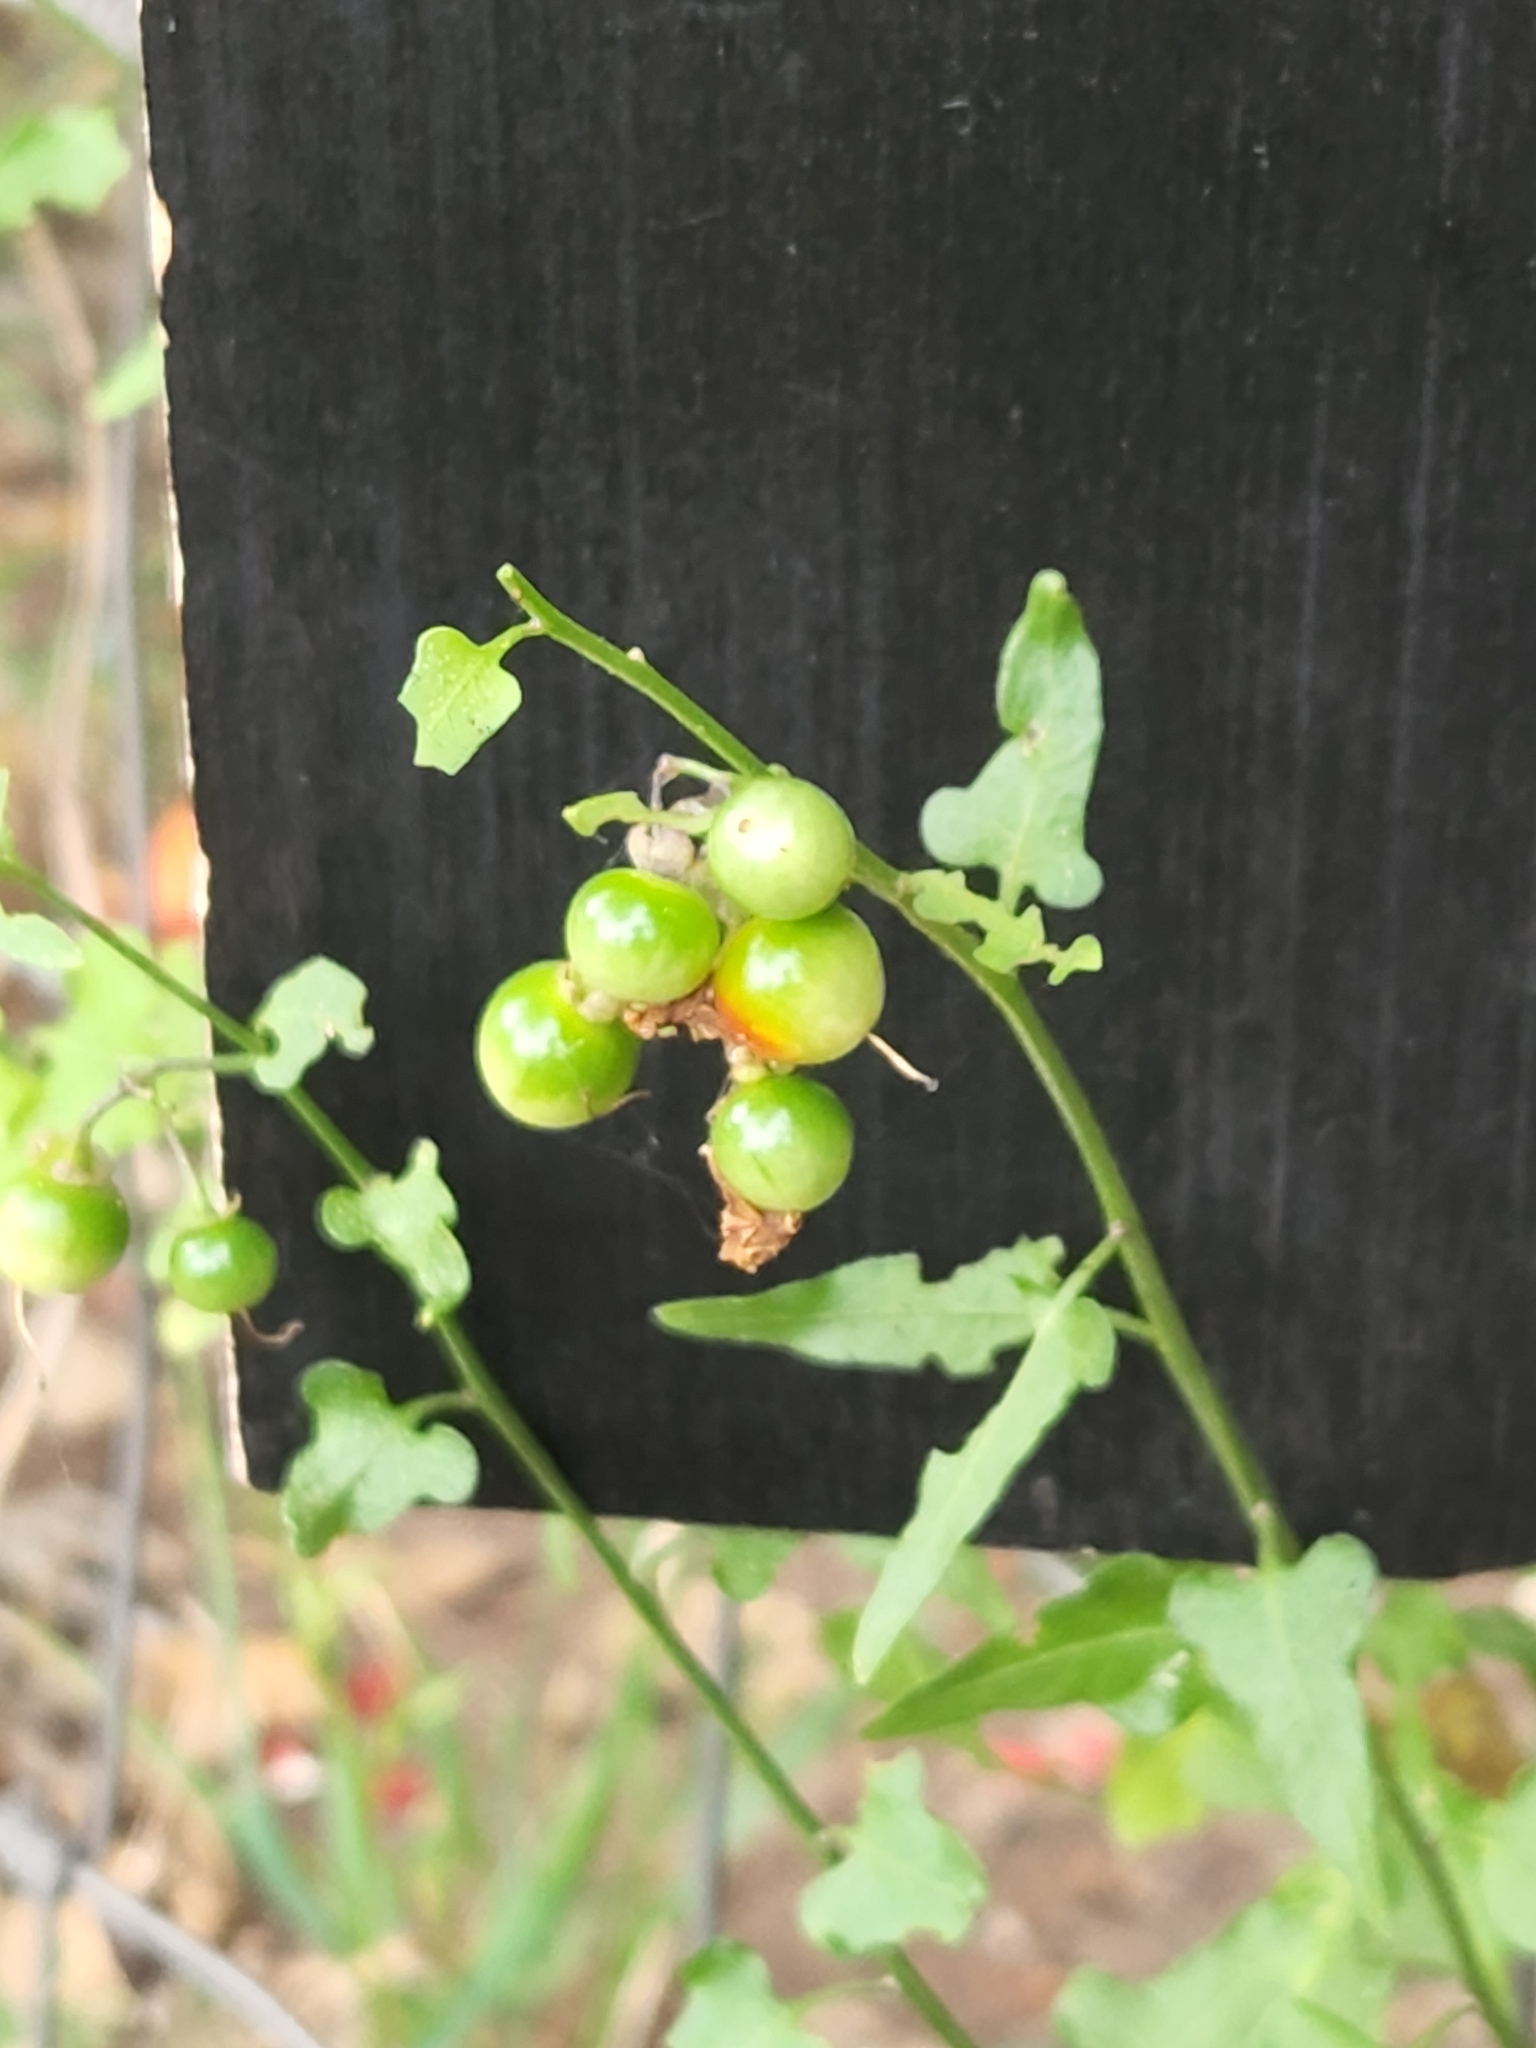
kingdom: Plantae
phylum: Tracheophyta
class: Magnoliopsida
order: Solanales
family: Solanaceae
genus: Solanum
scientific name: Solanum triquetrum
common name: Texas nightshade
